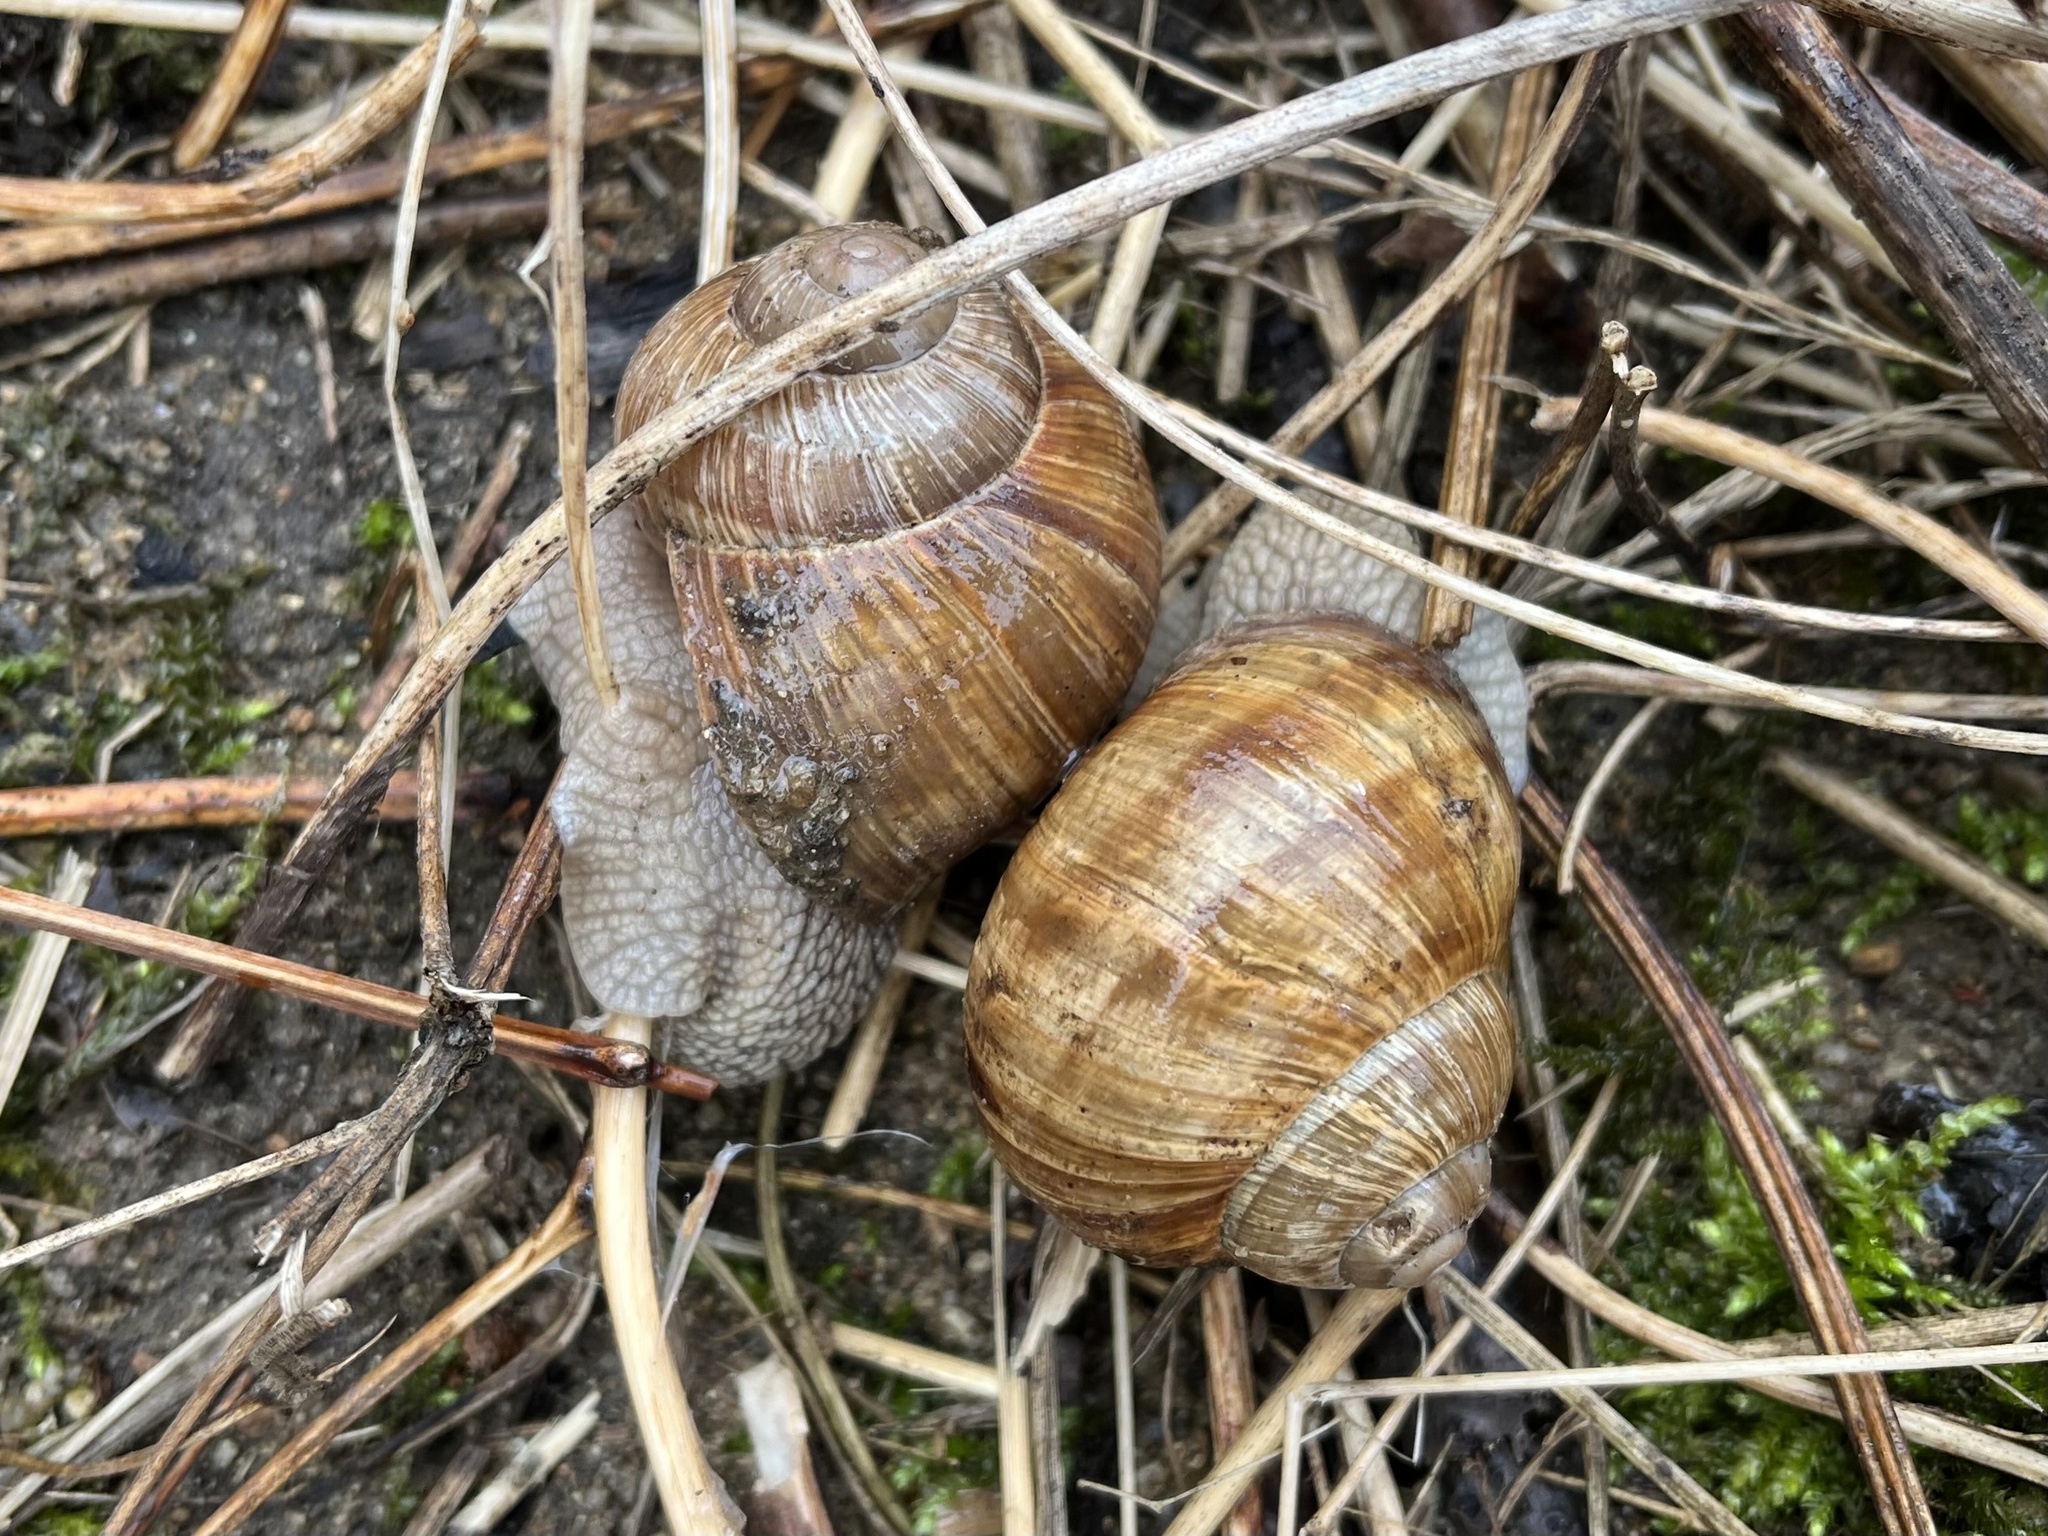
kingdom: Animalia
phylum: Mollusca
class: Gastropoda
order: Stylommatophora
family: Helicidae
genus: Helix
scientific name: Helix pomatia
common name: Roman snail
